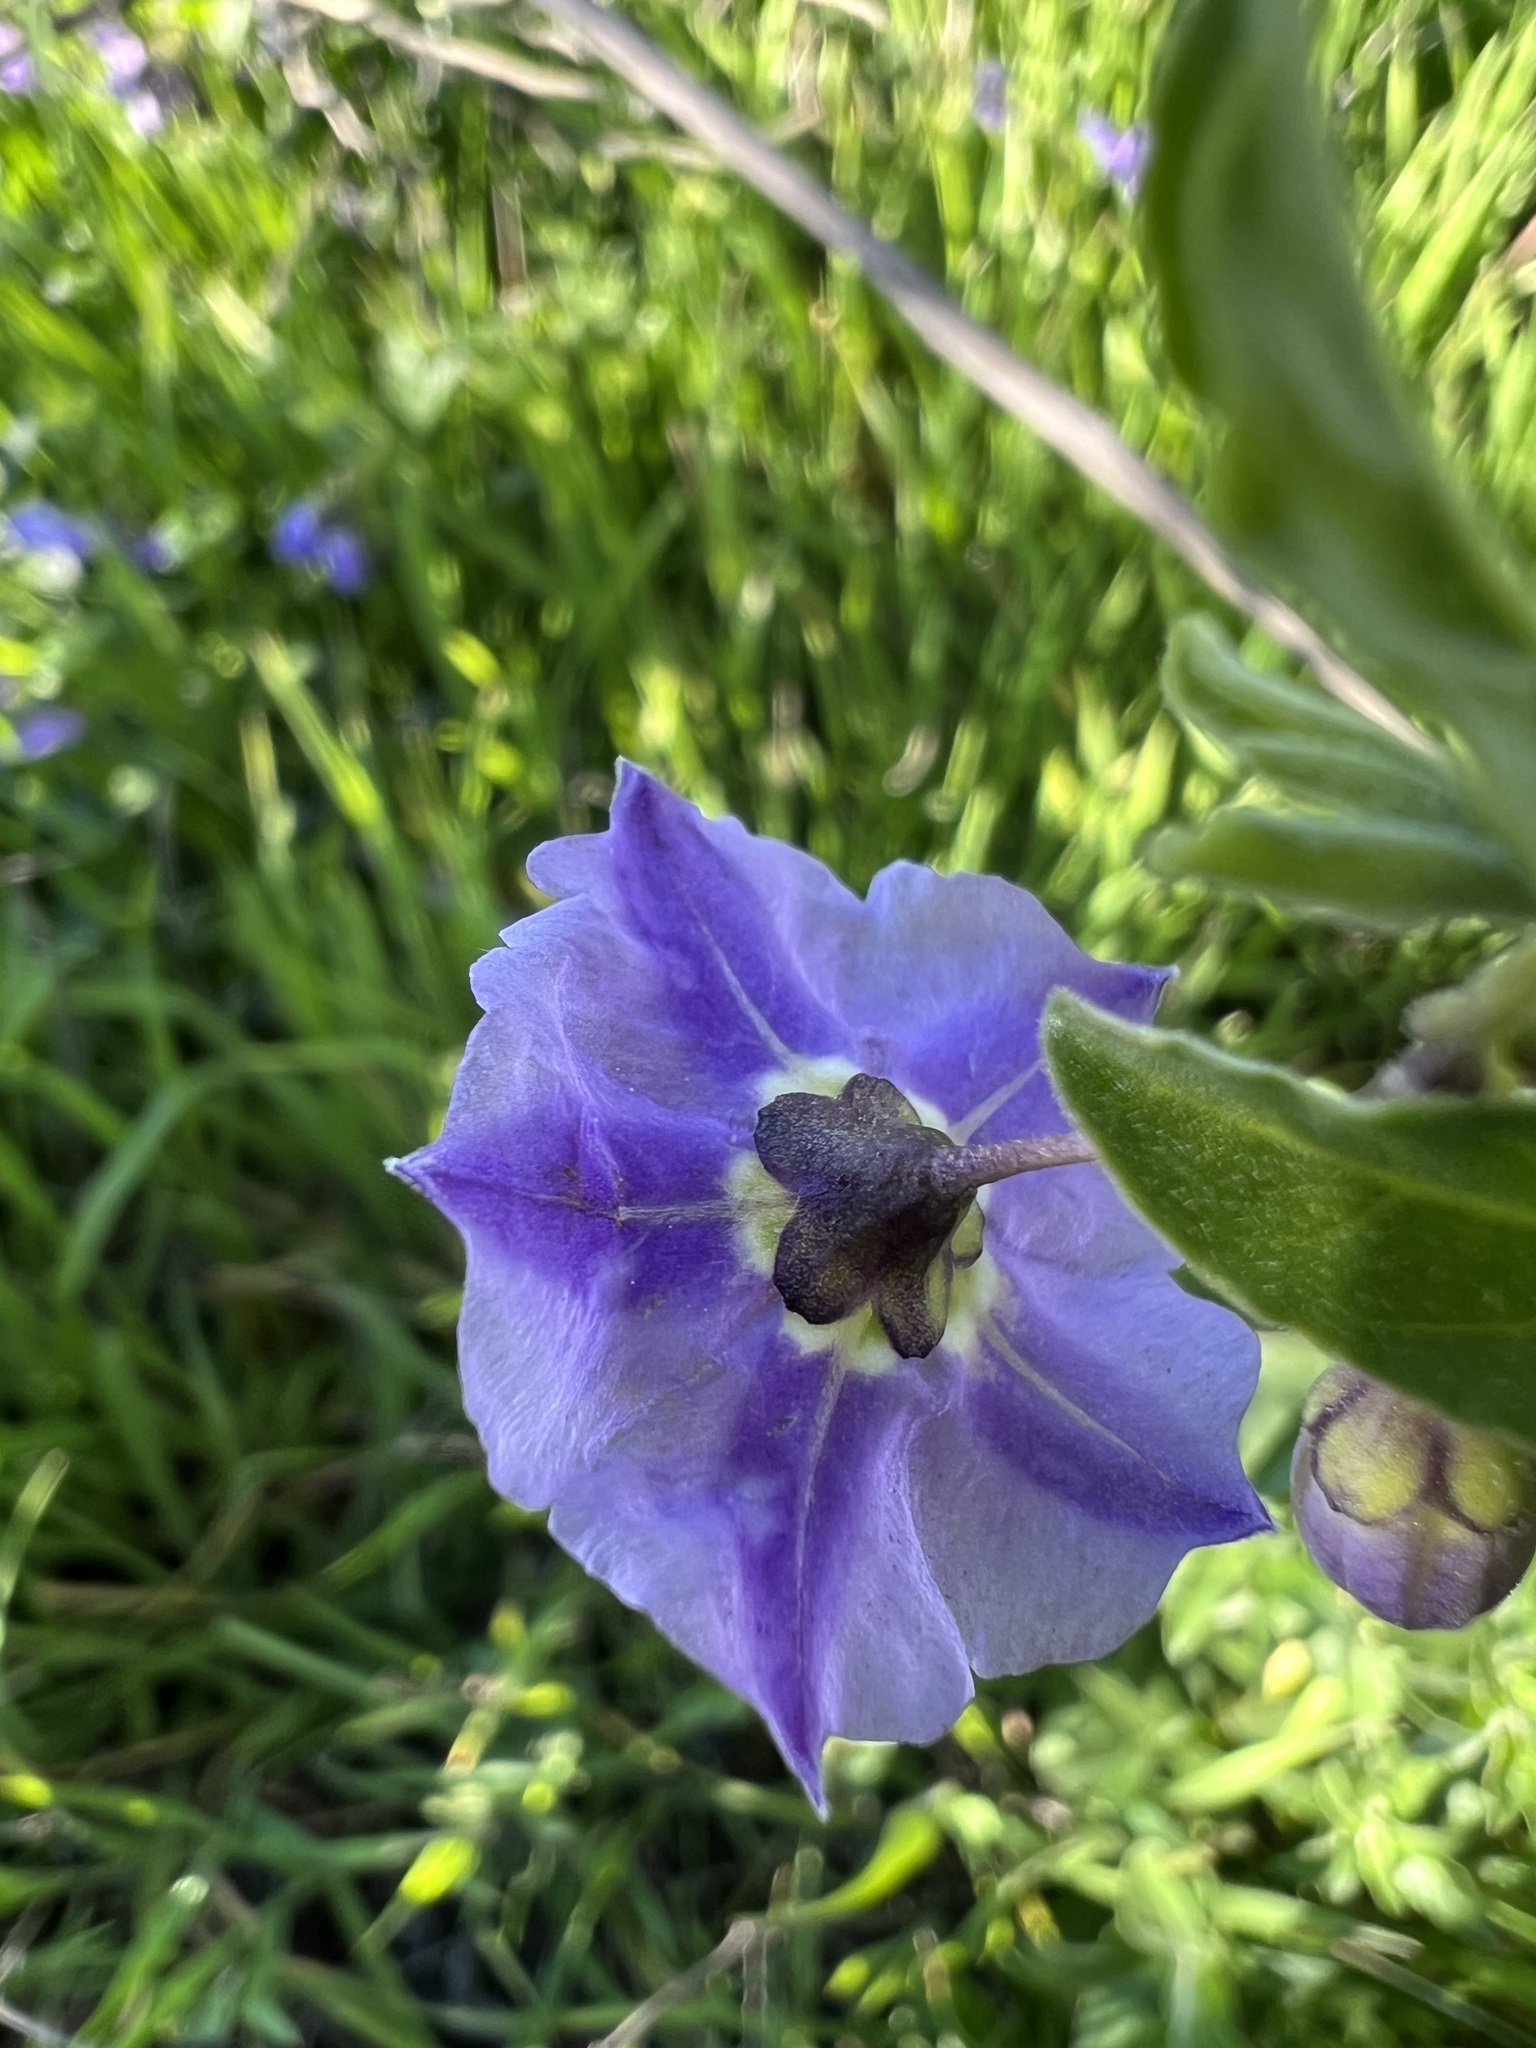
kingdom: Plantae
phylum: Tracheophyta
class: Magnoliopsida
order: Solanales
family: Solanaceae
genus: Solanum
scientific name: Solanum umbelliferum
